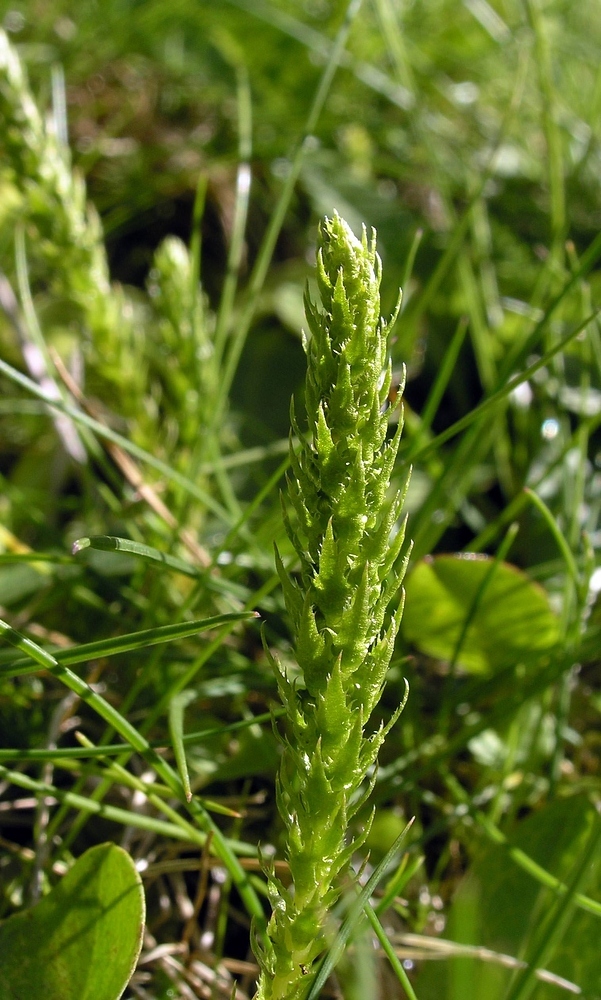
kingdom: Plantae
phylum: Tracheophyta
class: Lycopodiopsida
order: Selaginellales
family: Selaginellaceae
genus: Selaginella
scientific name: Selaginella selaginoides
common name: Prickly mountain-moss
